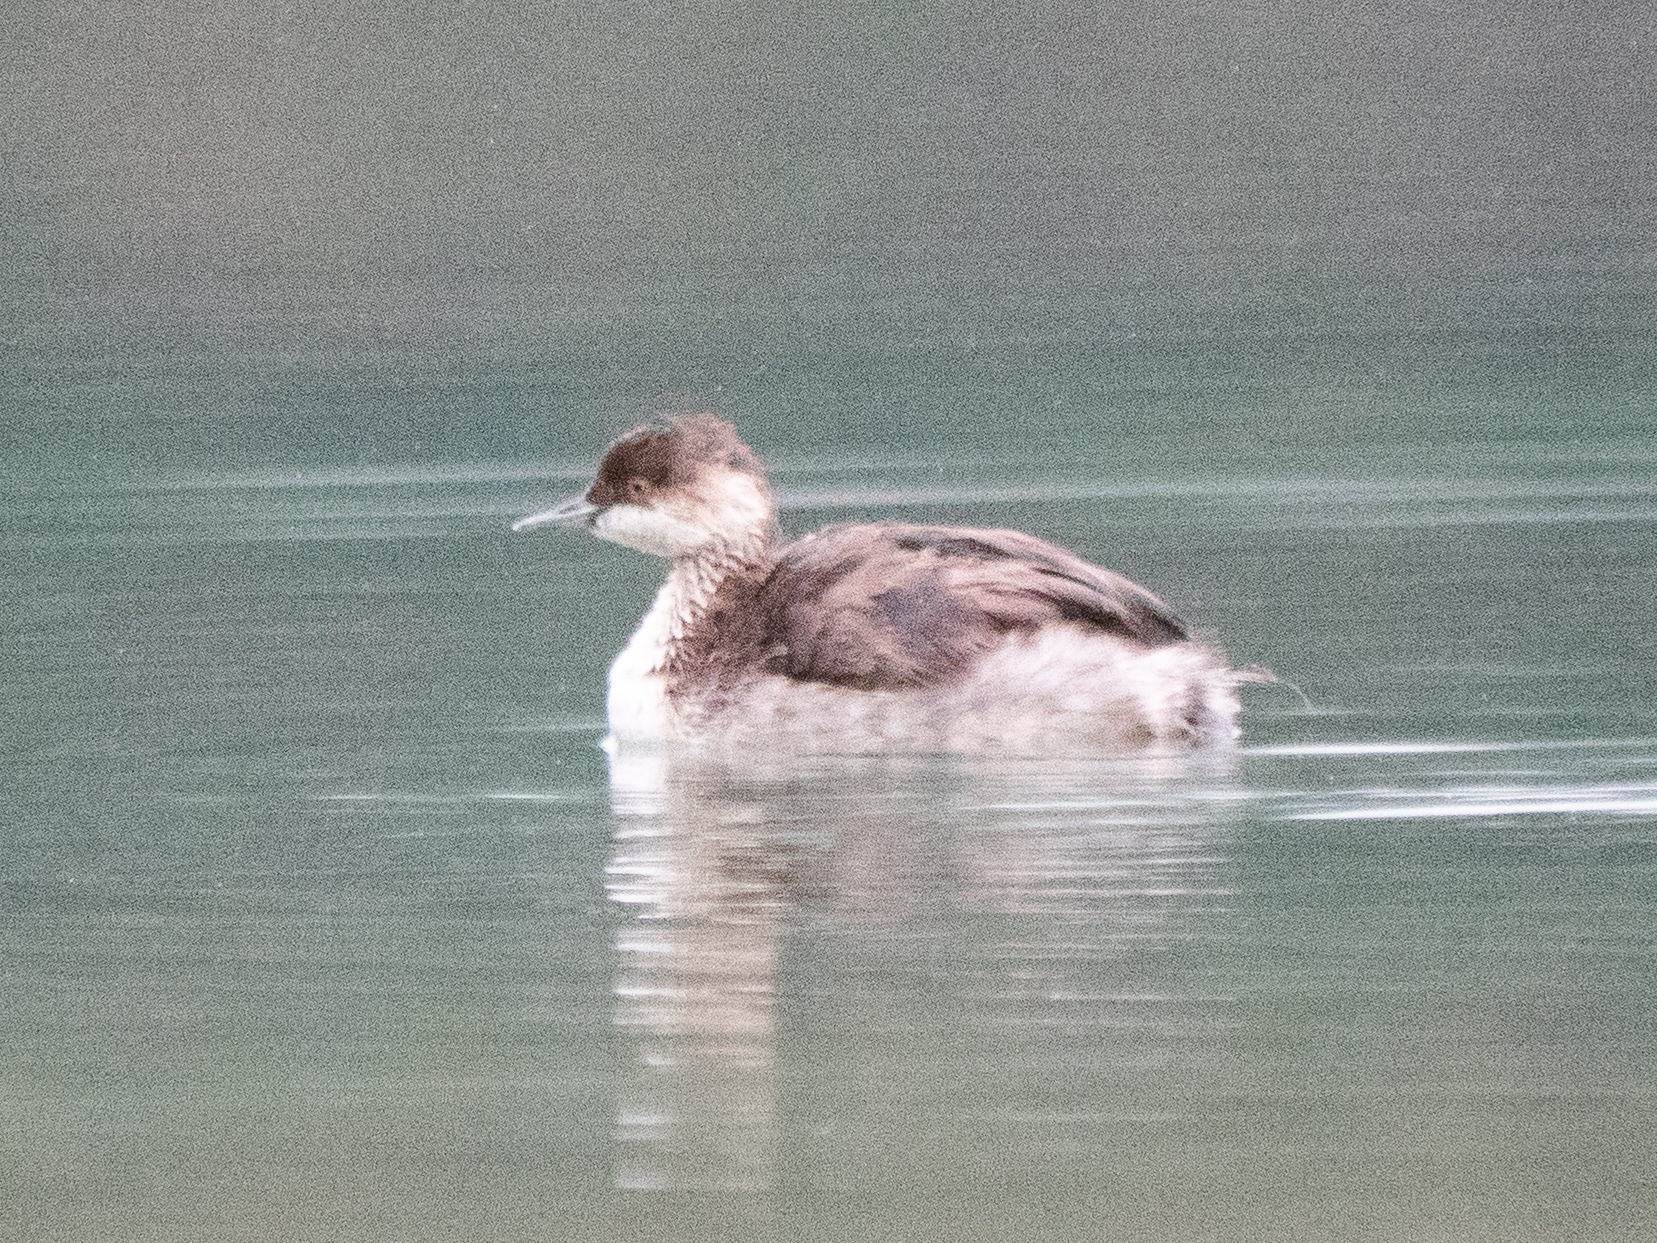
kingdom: Animalia
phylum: Chordata
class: Aves
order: Podicipediformes
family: Podicipedidae
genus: Podiceps
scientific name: Podiceps nigricollis
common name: Black-necked grebe
